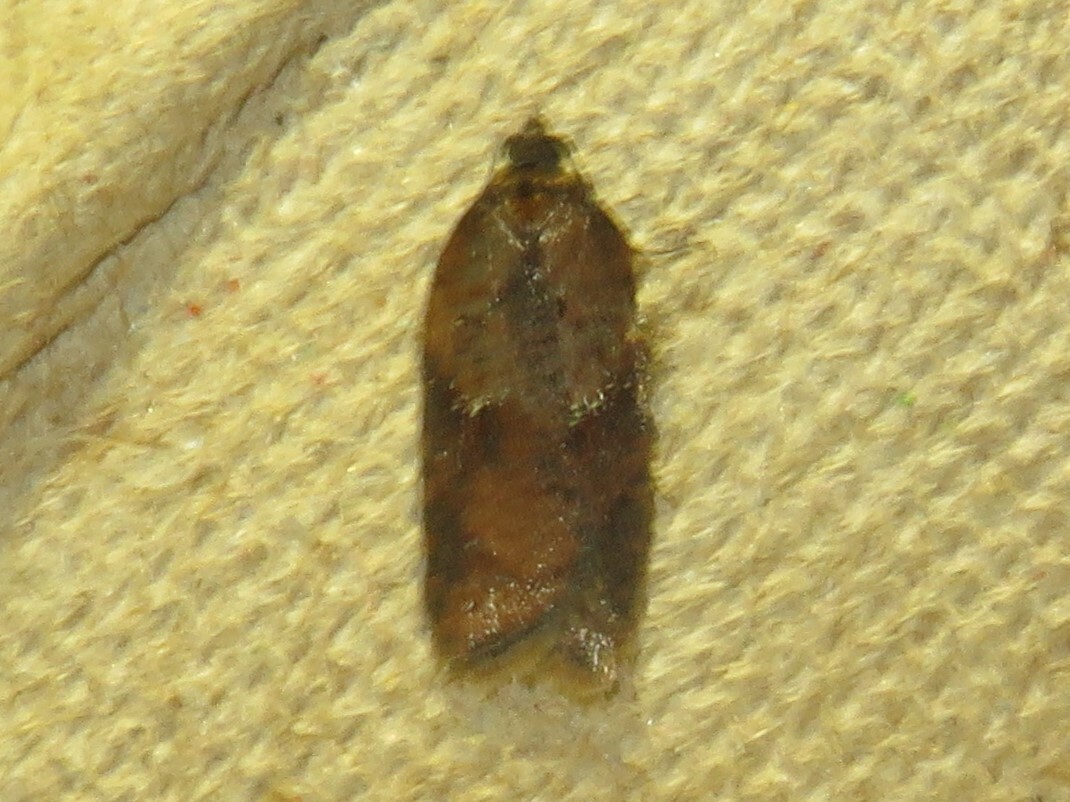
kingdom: Animalia
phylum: Arthropoda
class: Insecta
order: Lepidoptera
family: Tortricidae
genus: Acleris
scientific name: Acleris schalleriana
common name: Viburnum button
